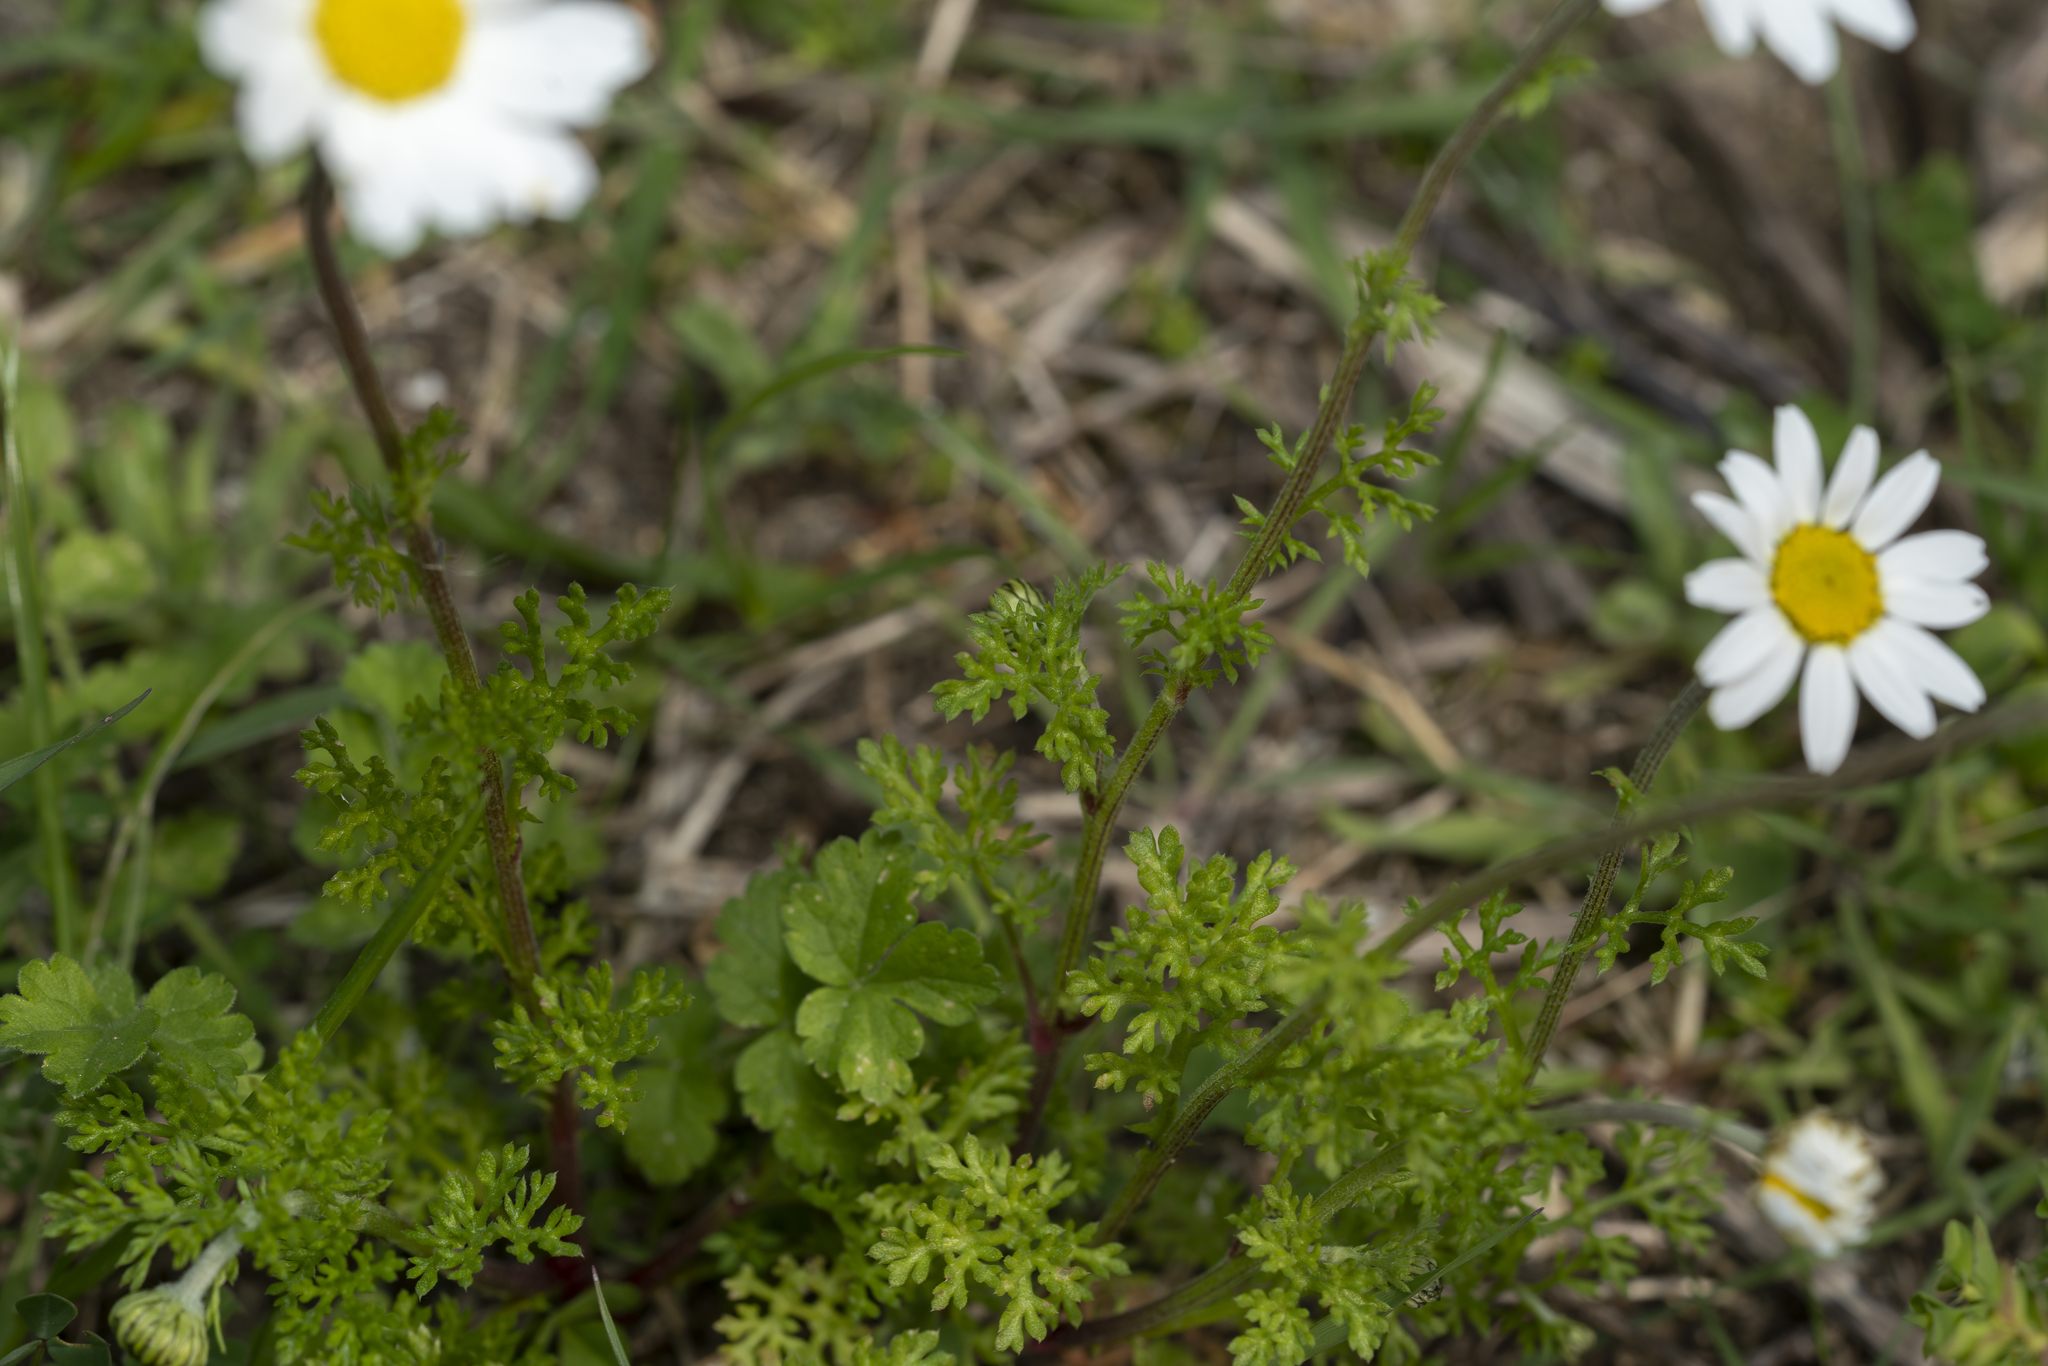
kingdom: Plantae
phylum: Tracheophyta
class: Magnoliopsida
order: Asterales
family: Asteraceae
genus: Anthemis
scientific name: Anthemis chia
